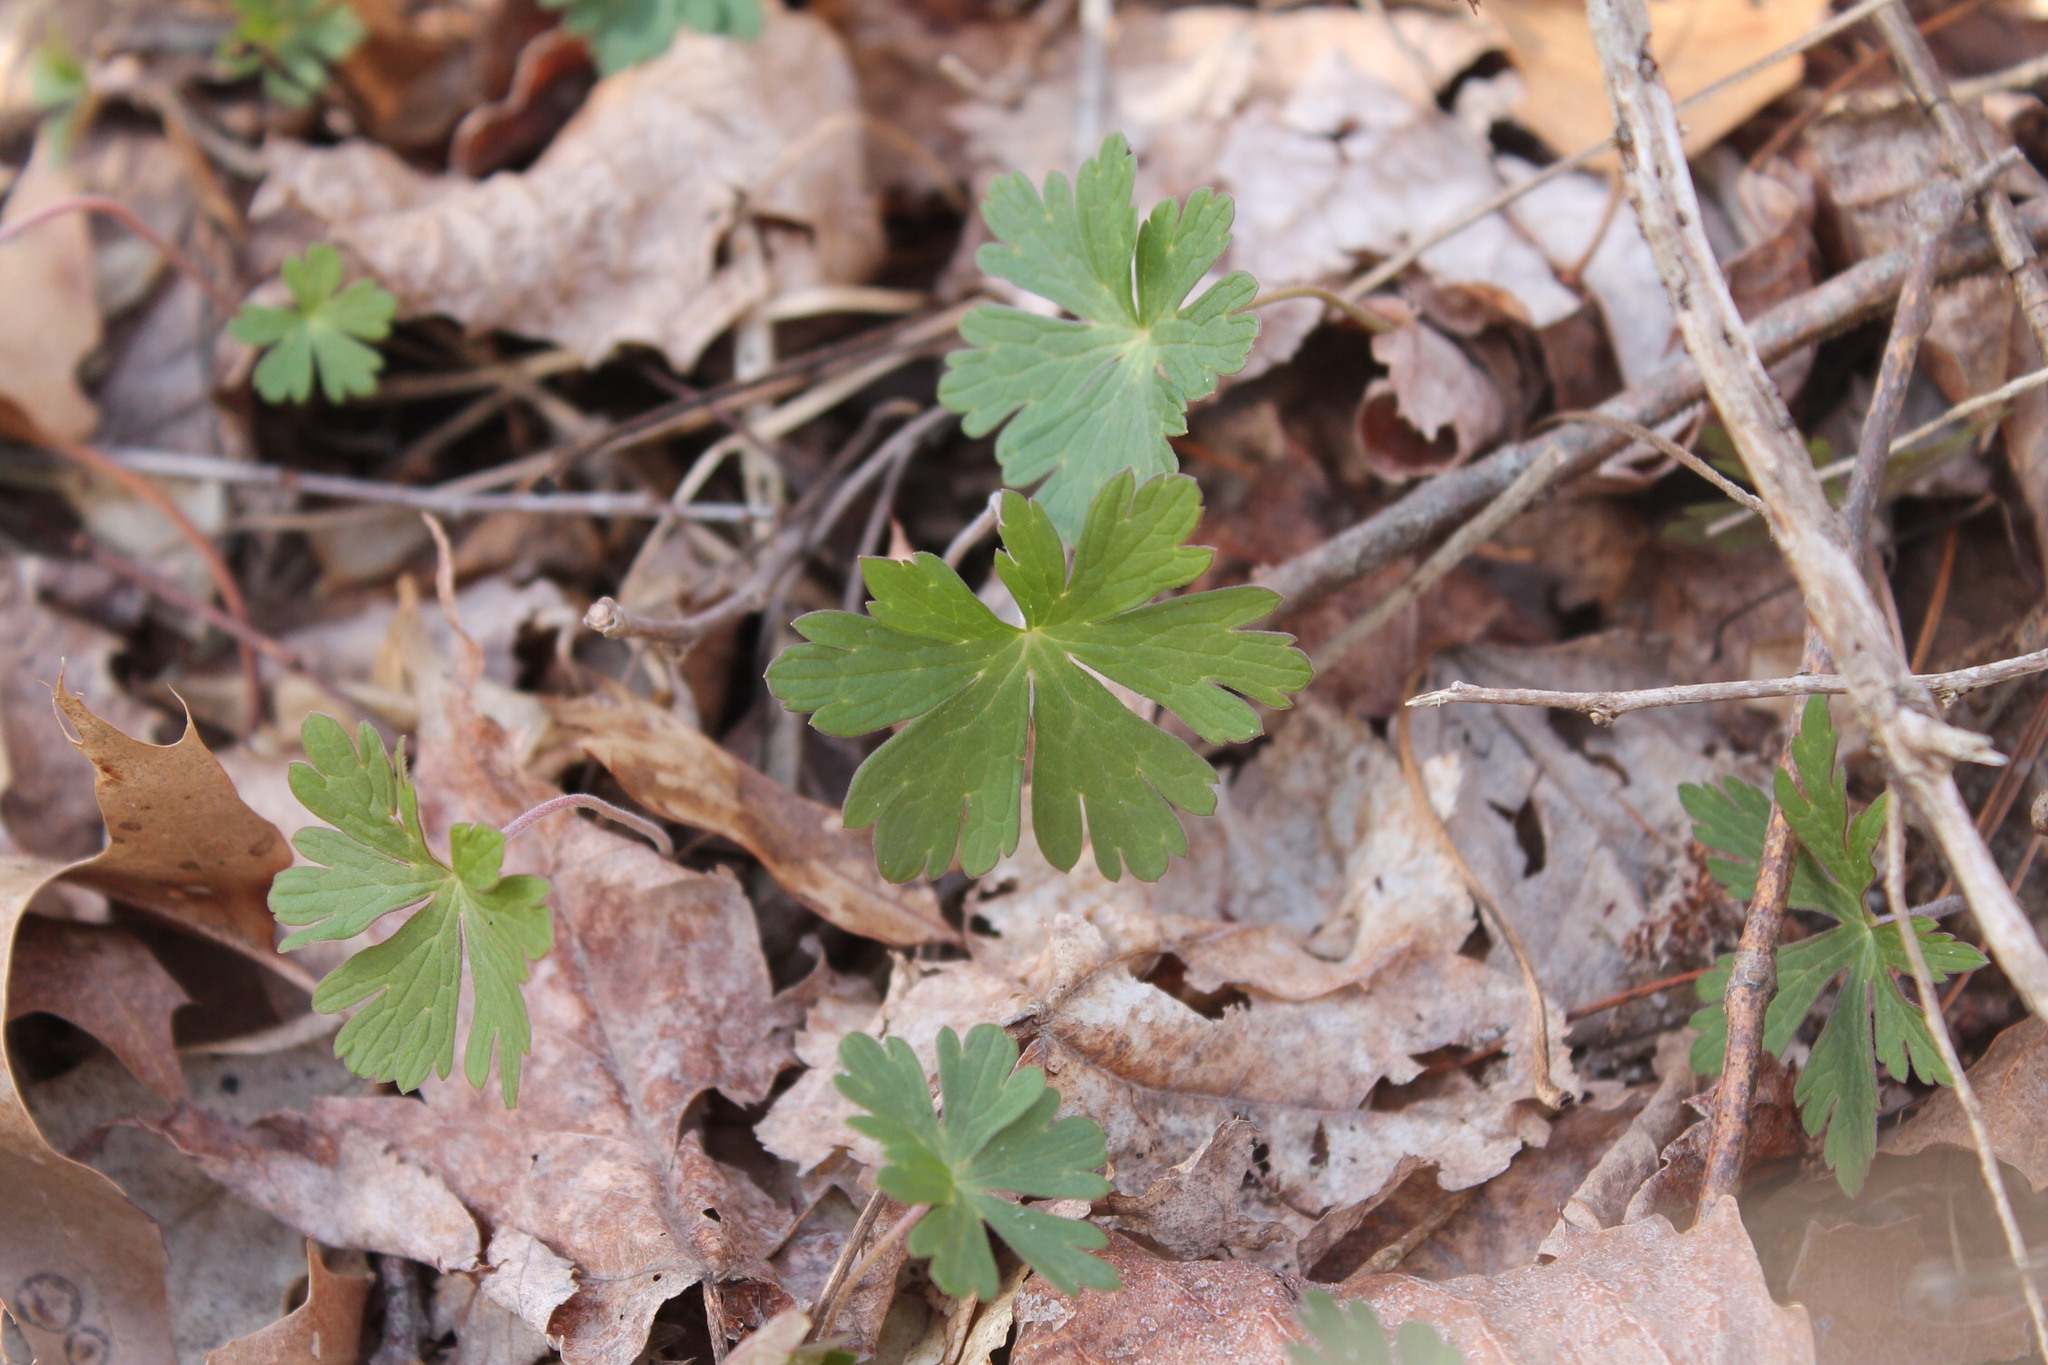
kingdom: Plantae
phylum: Tracheophyta
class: Magnoliopsida
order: Geraniales
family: Geraniaceae
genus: Geranium
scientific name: Geranium maculatum
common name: Spotted geranium
